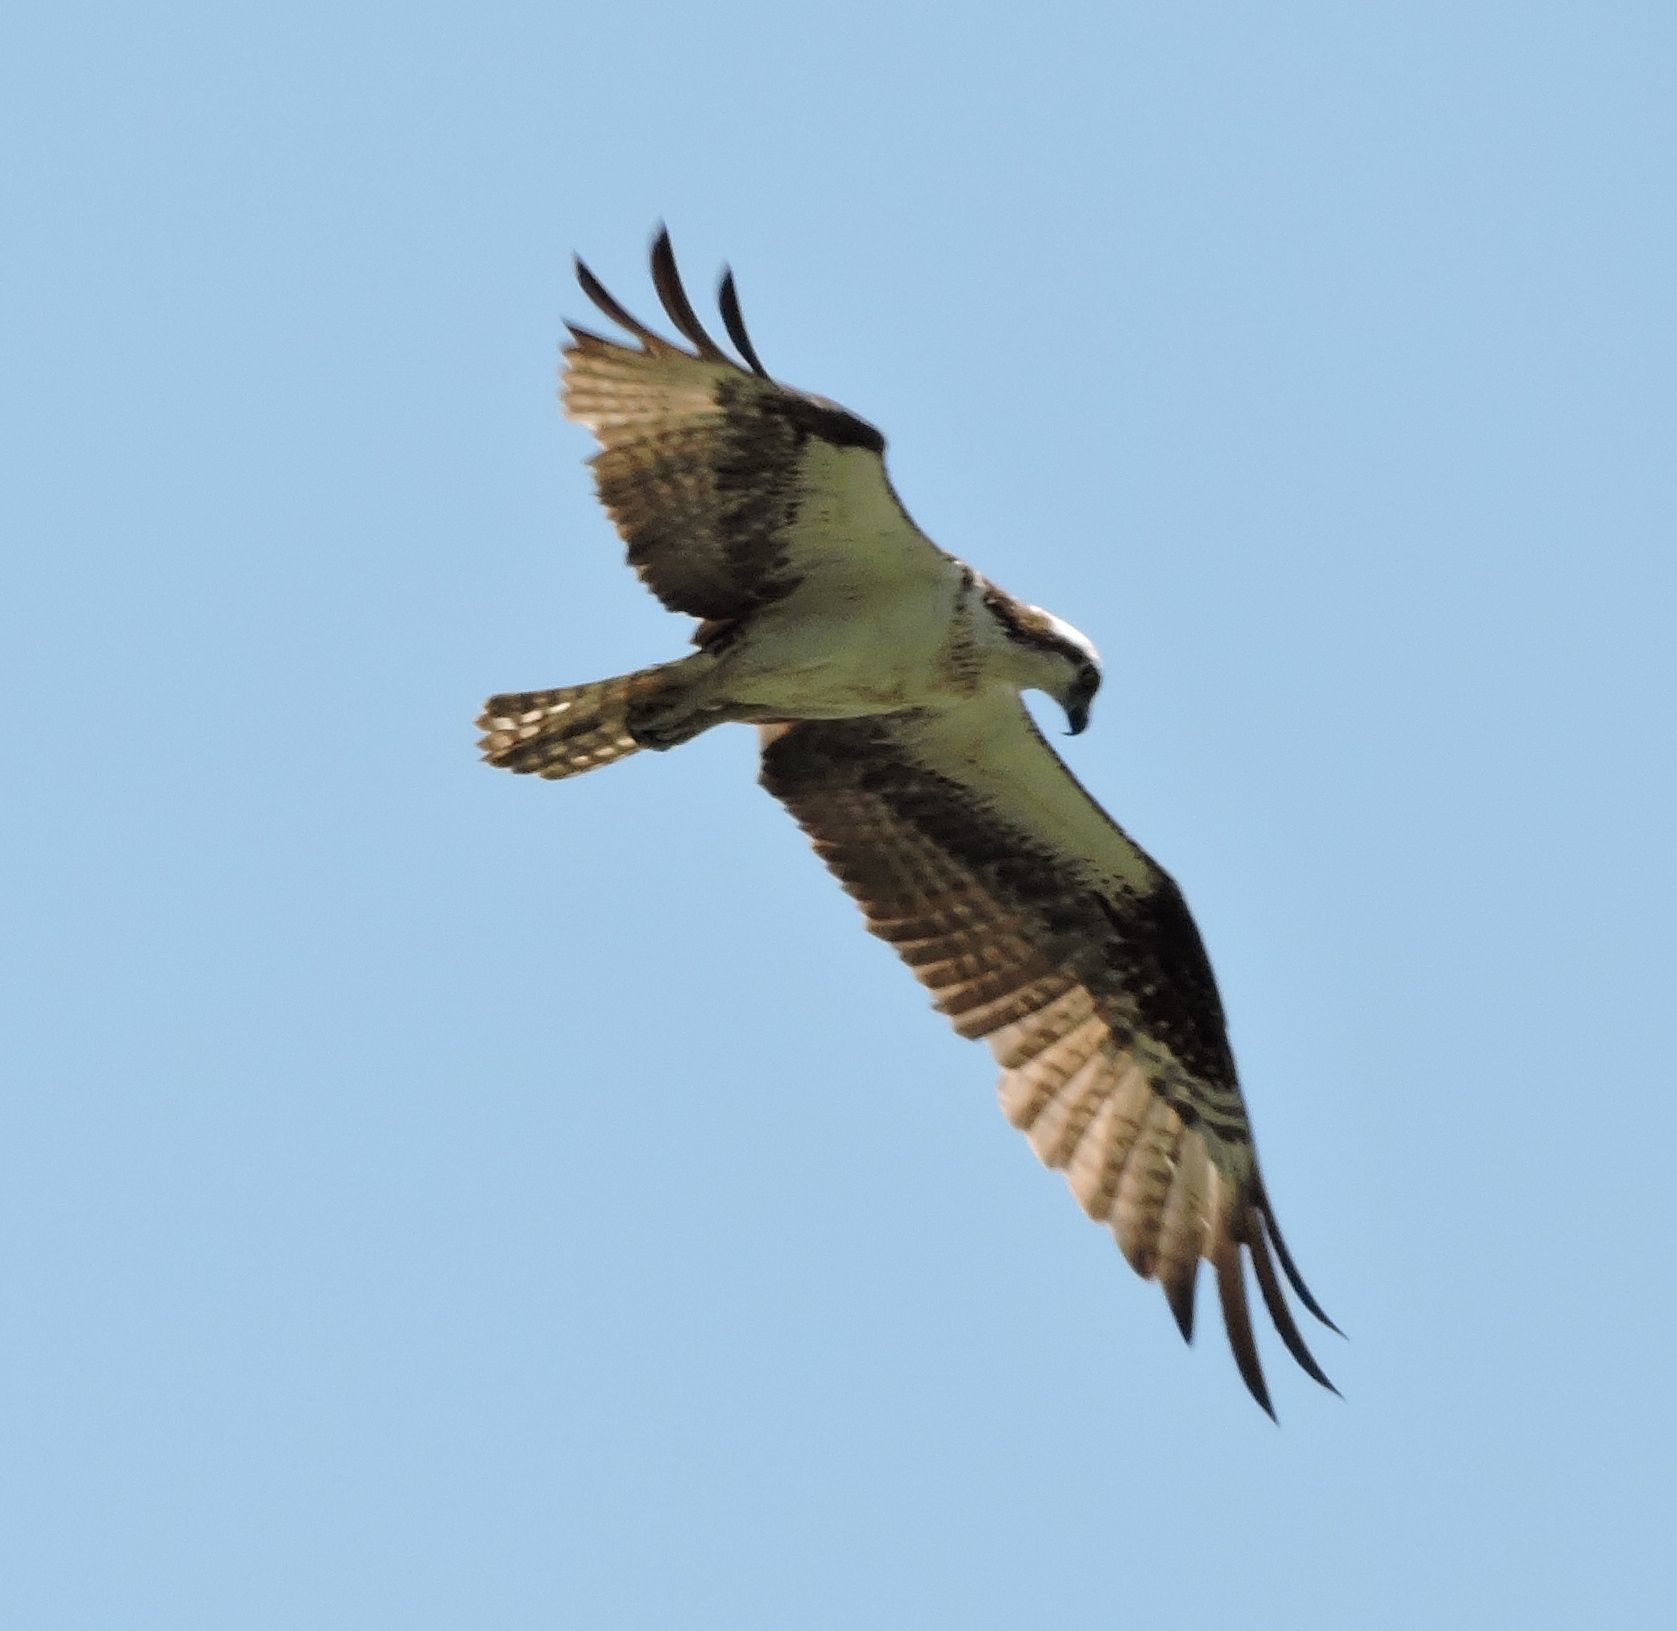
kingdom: Animalia
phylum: Chordata
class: Aves
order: Accipitriformes
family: Pandionidae
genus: Pandion
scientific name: Pandion haliaetus
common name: Osprey
